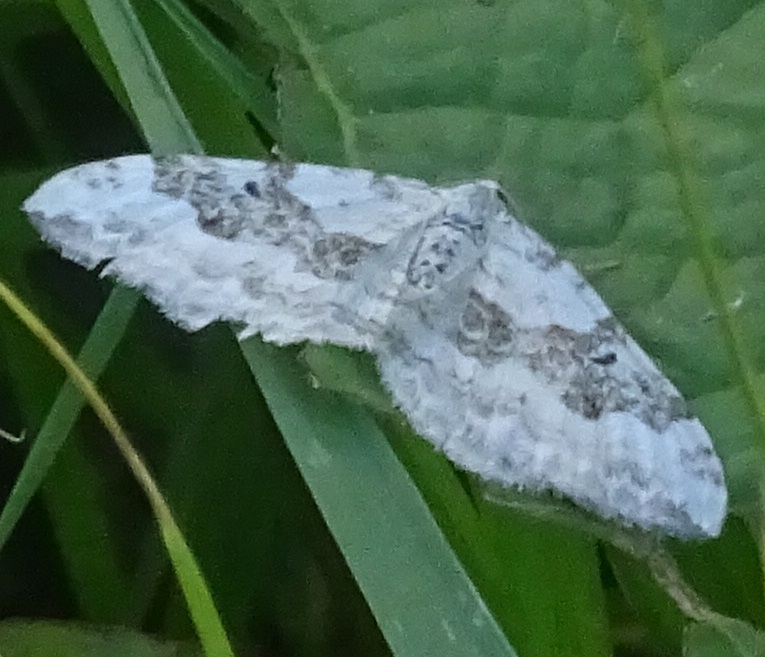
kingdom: Animalia
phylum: Arthropoda
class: Insecta
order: Lepidoptera
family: Geometridae
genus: Xanthorhoe
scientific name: Xanthorhoe montanata
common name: Silver-ground carpet
